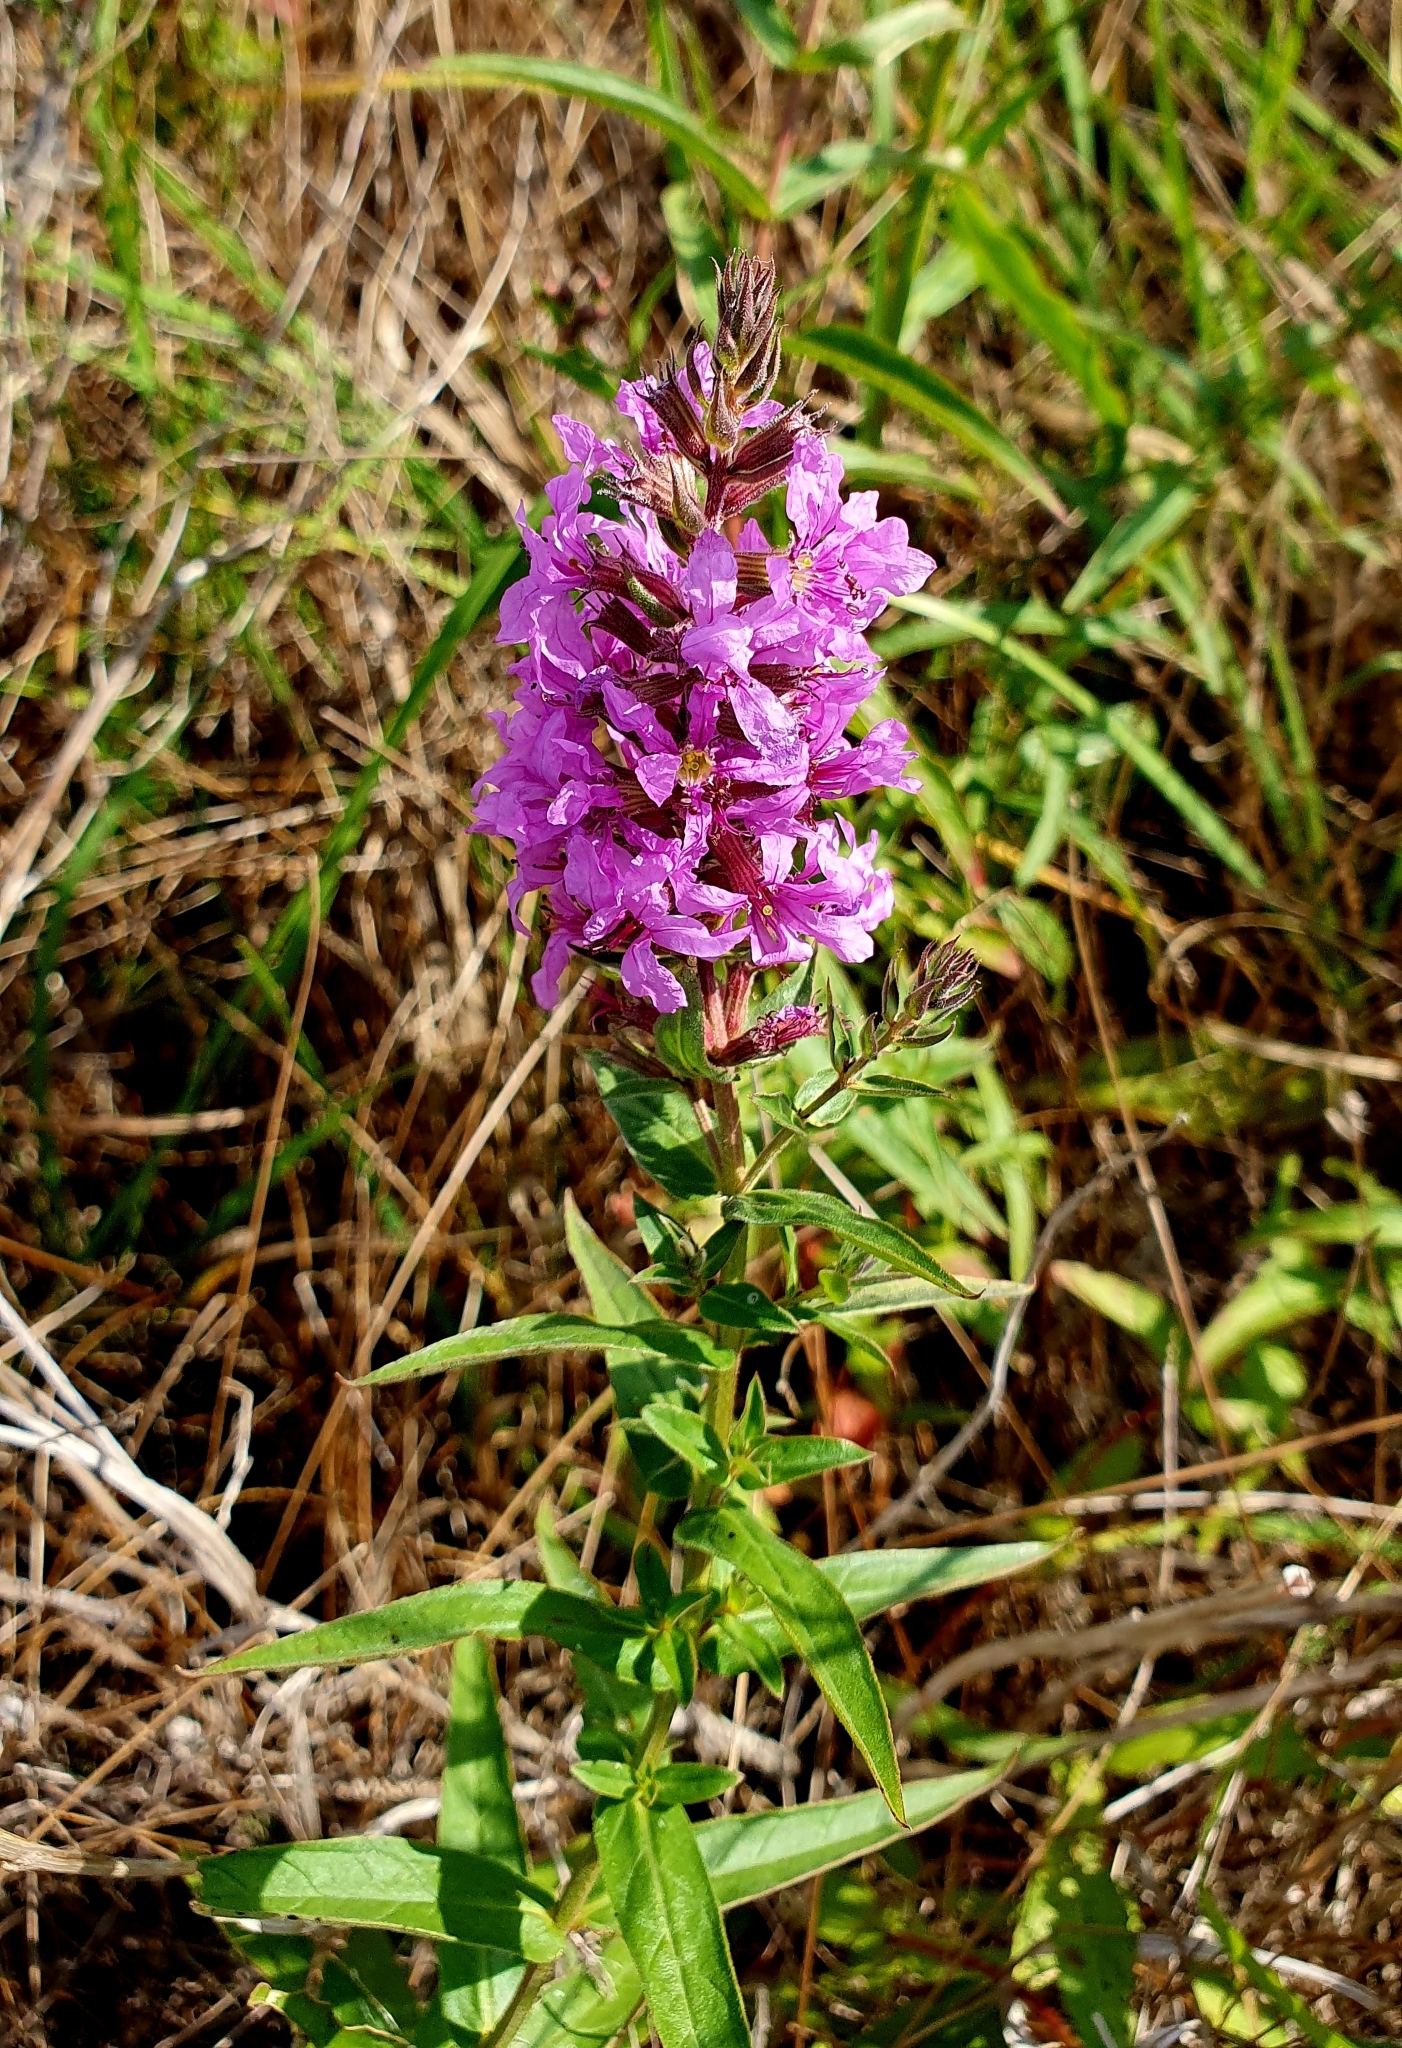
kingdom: Plantae
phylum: Tracheophyta
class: Magnoliopsida
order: Myrtales
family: Lythraceae
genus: Lythrum
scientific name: Lythrum salicaria
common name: Purple loosestrife
